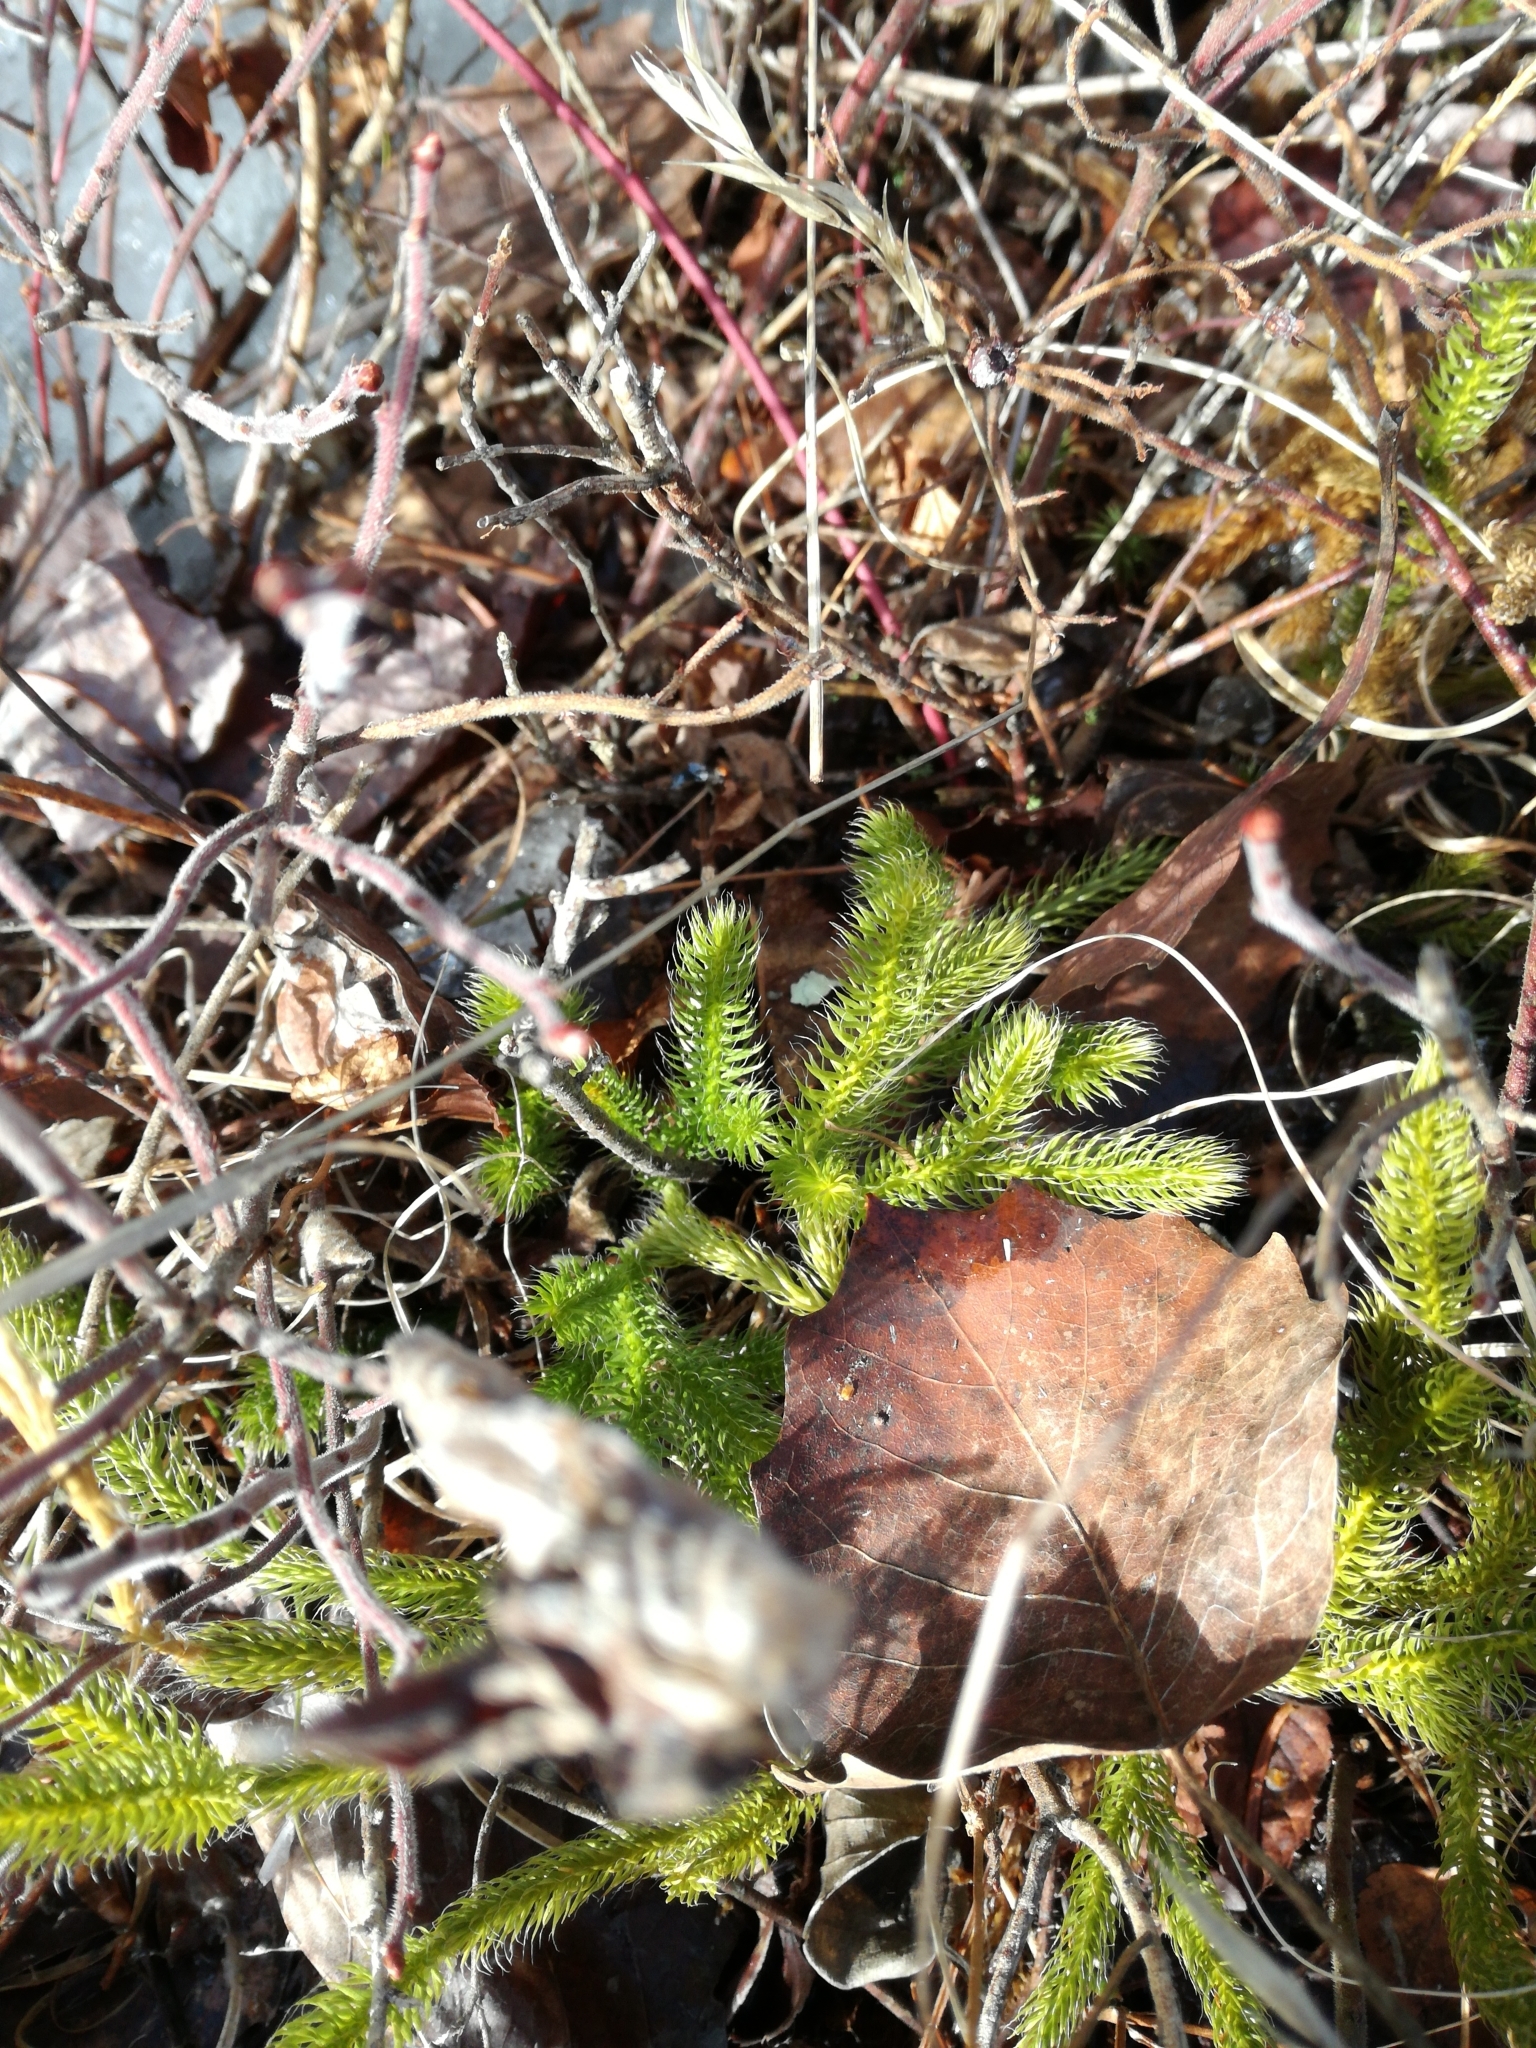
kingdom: Plantae
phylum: Tracheophyta
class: Lycopodiopsida
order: Lycopodiales
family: Lycopodiaceae
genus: Lycopodium
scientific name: Lycopodium clavatum
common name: Stag's-horn clubmoss
